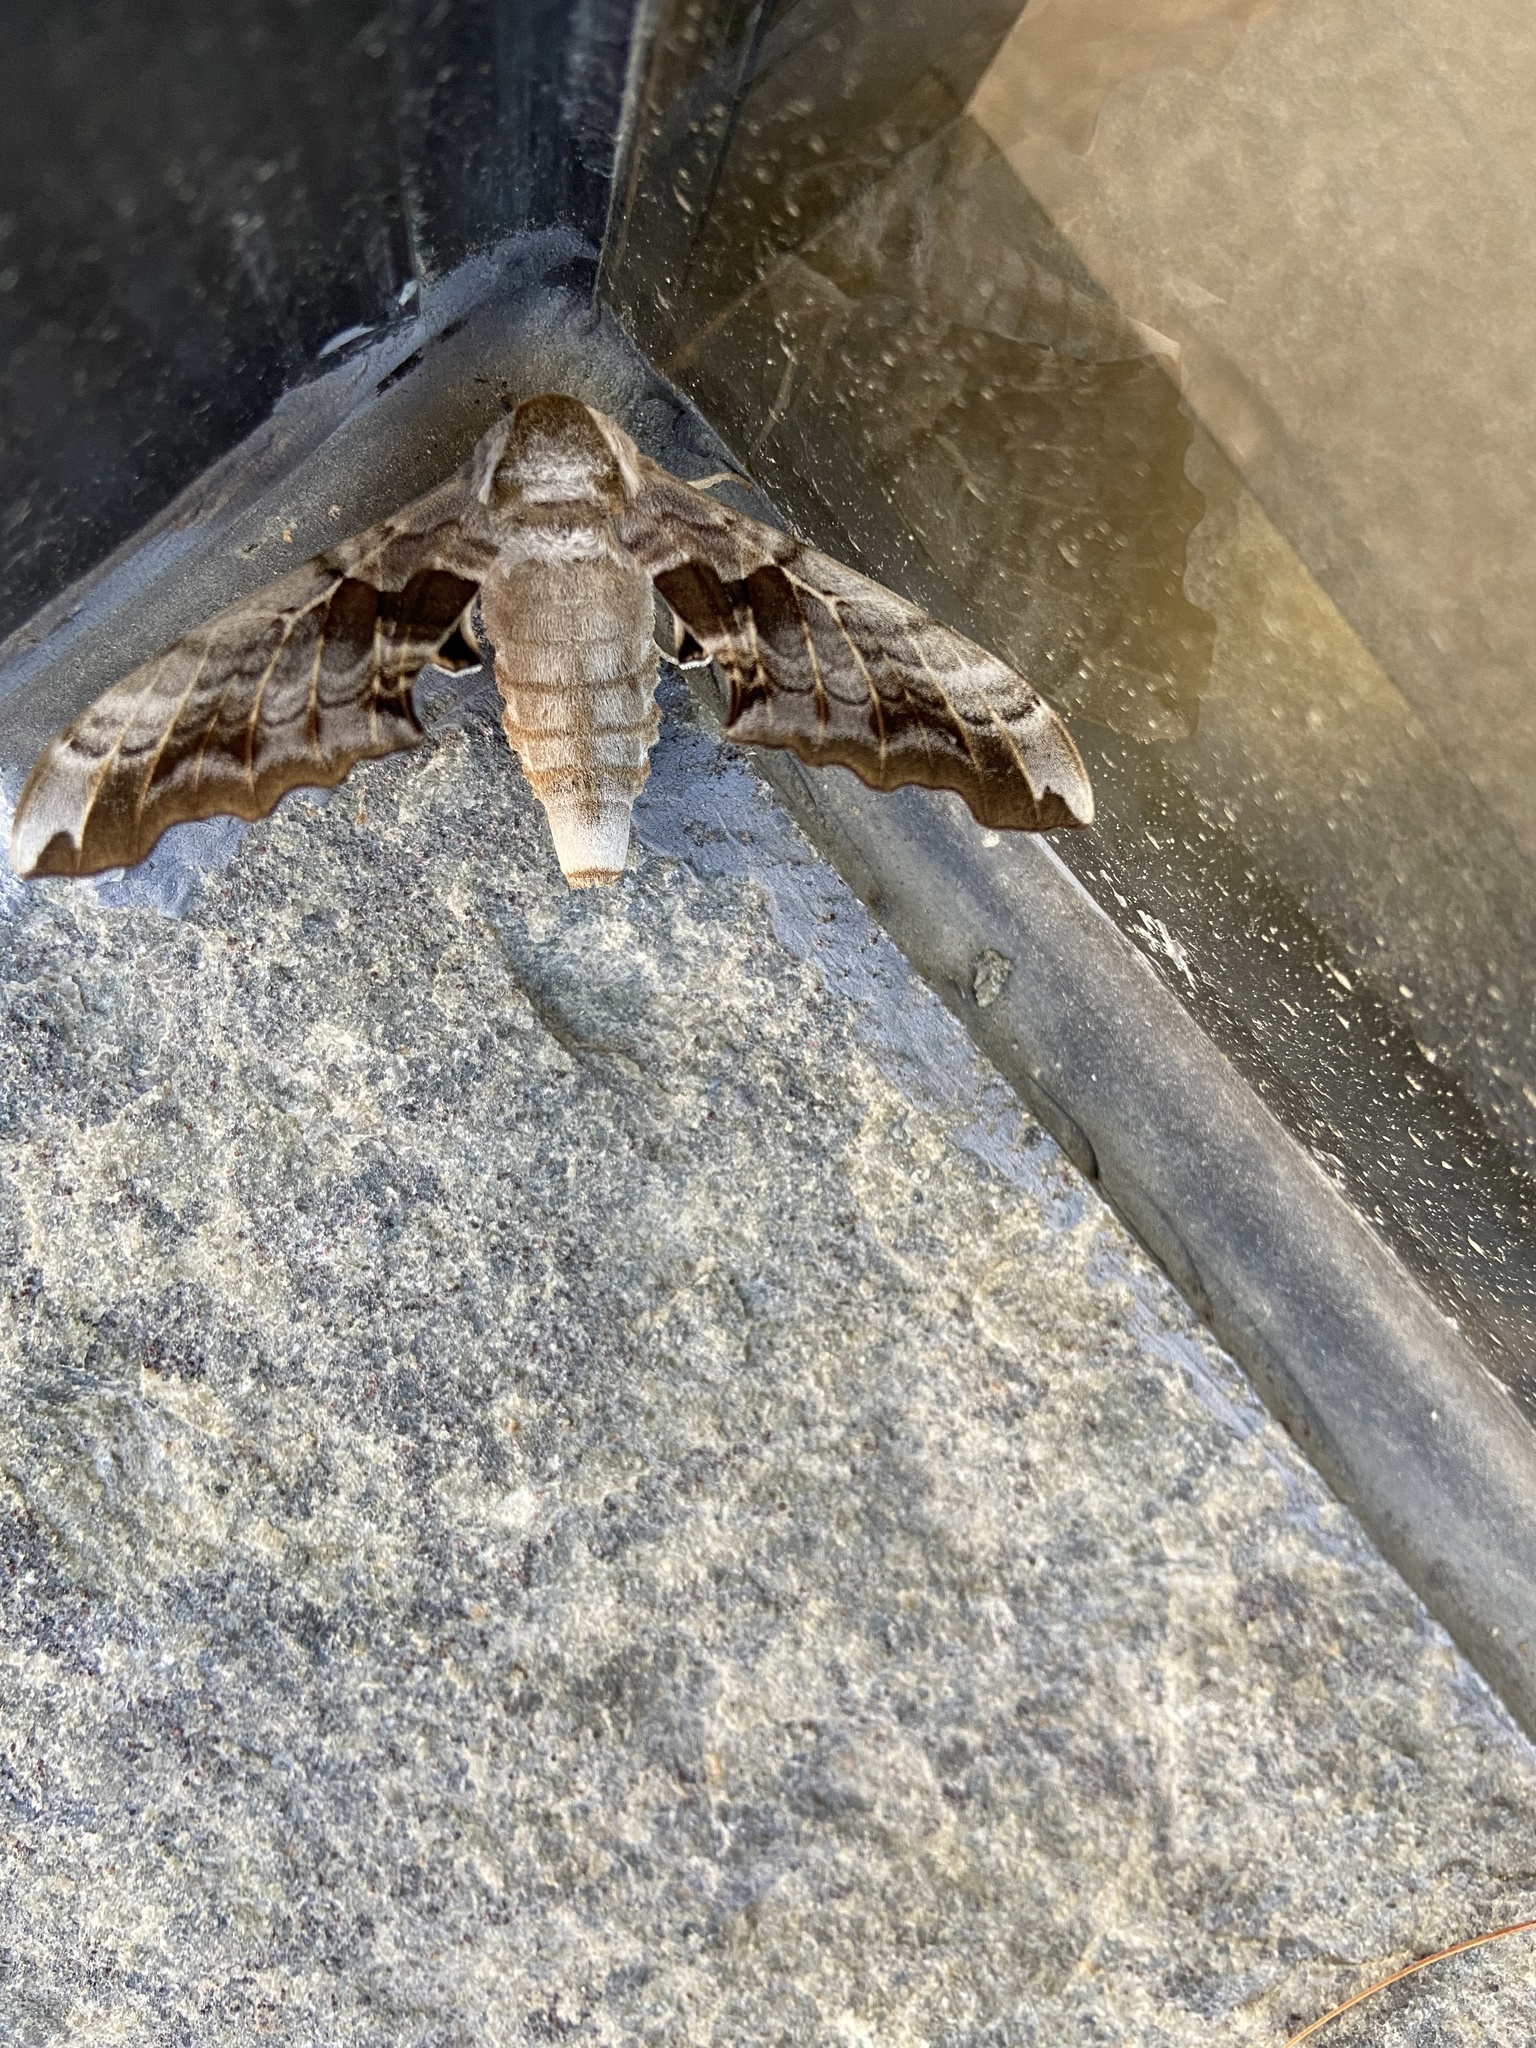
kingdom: Animalia
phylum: Arthropoda
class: Insecta
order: Lepidoptera
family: Sphingidae
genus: Smerinthus
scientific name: Smerinthus cerisyi
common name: Cerisy's sphinx moth
